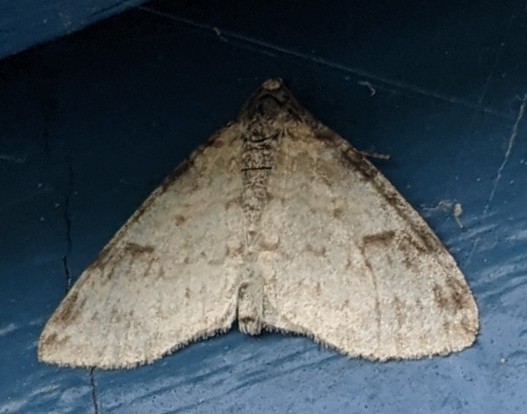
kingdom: Animalia
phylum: Arthropoda
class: Insecta
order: Lepidoptera
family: Geometridae
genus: Lobophora
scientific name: Lobophora nivigerata
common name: Powdered bigwing
